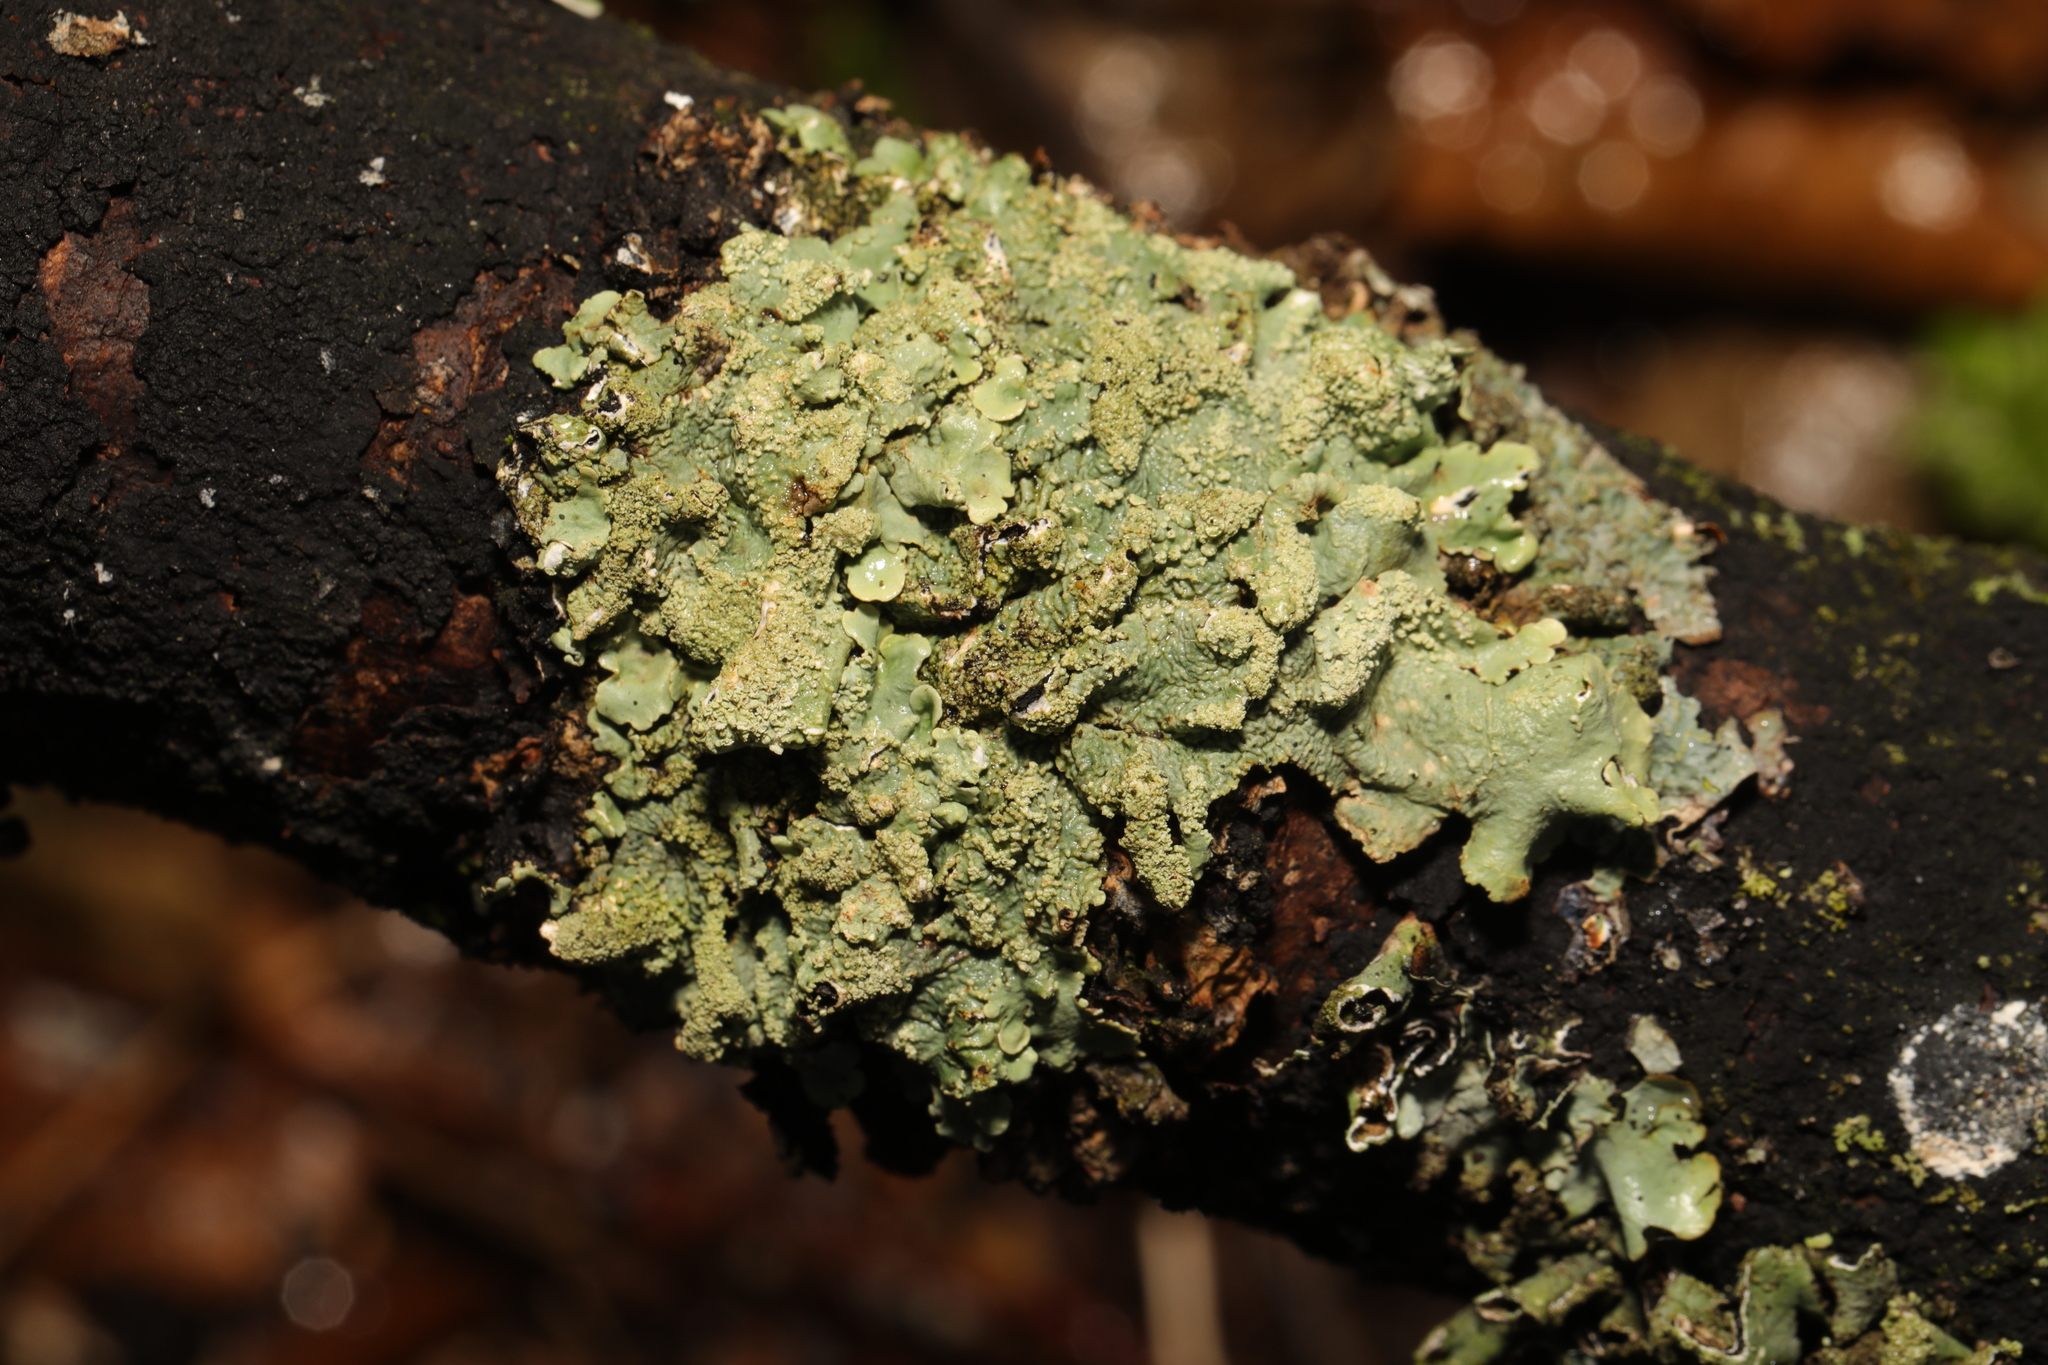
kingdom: Fungi
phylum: Ascomycota
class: Lecanoromycetes
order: Lecanorales
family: Parmeliaceae
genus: Flavoparmelia
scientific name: Flavoparmelia caperata
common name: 40-mile per hour lichen
